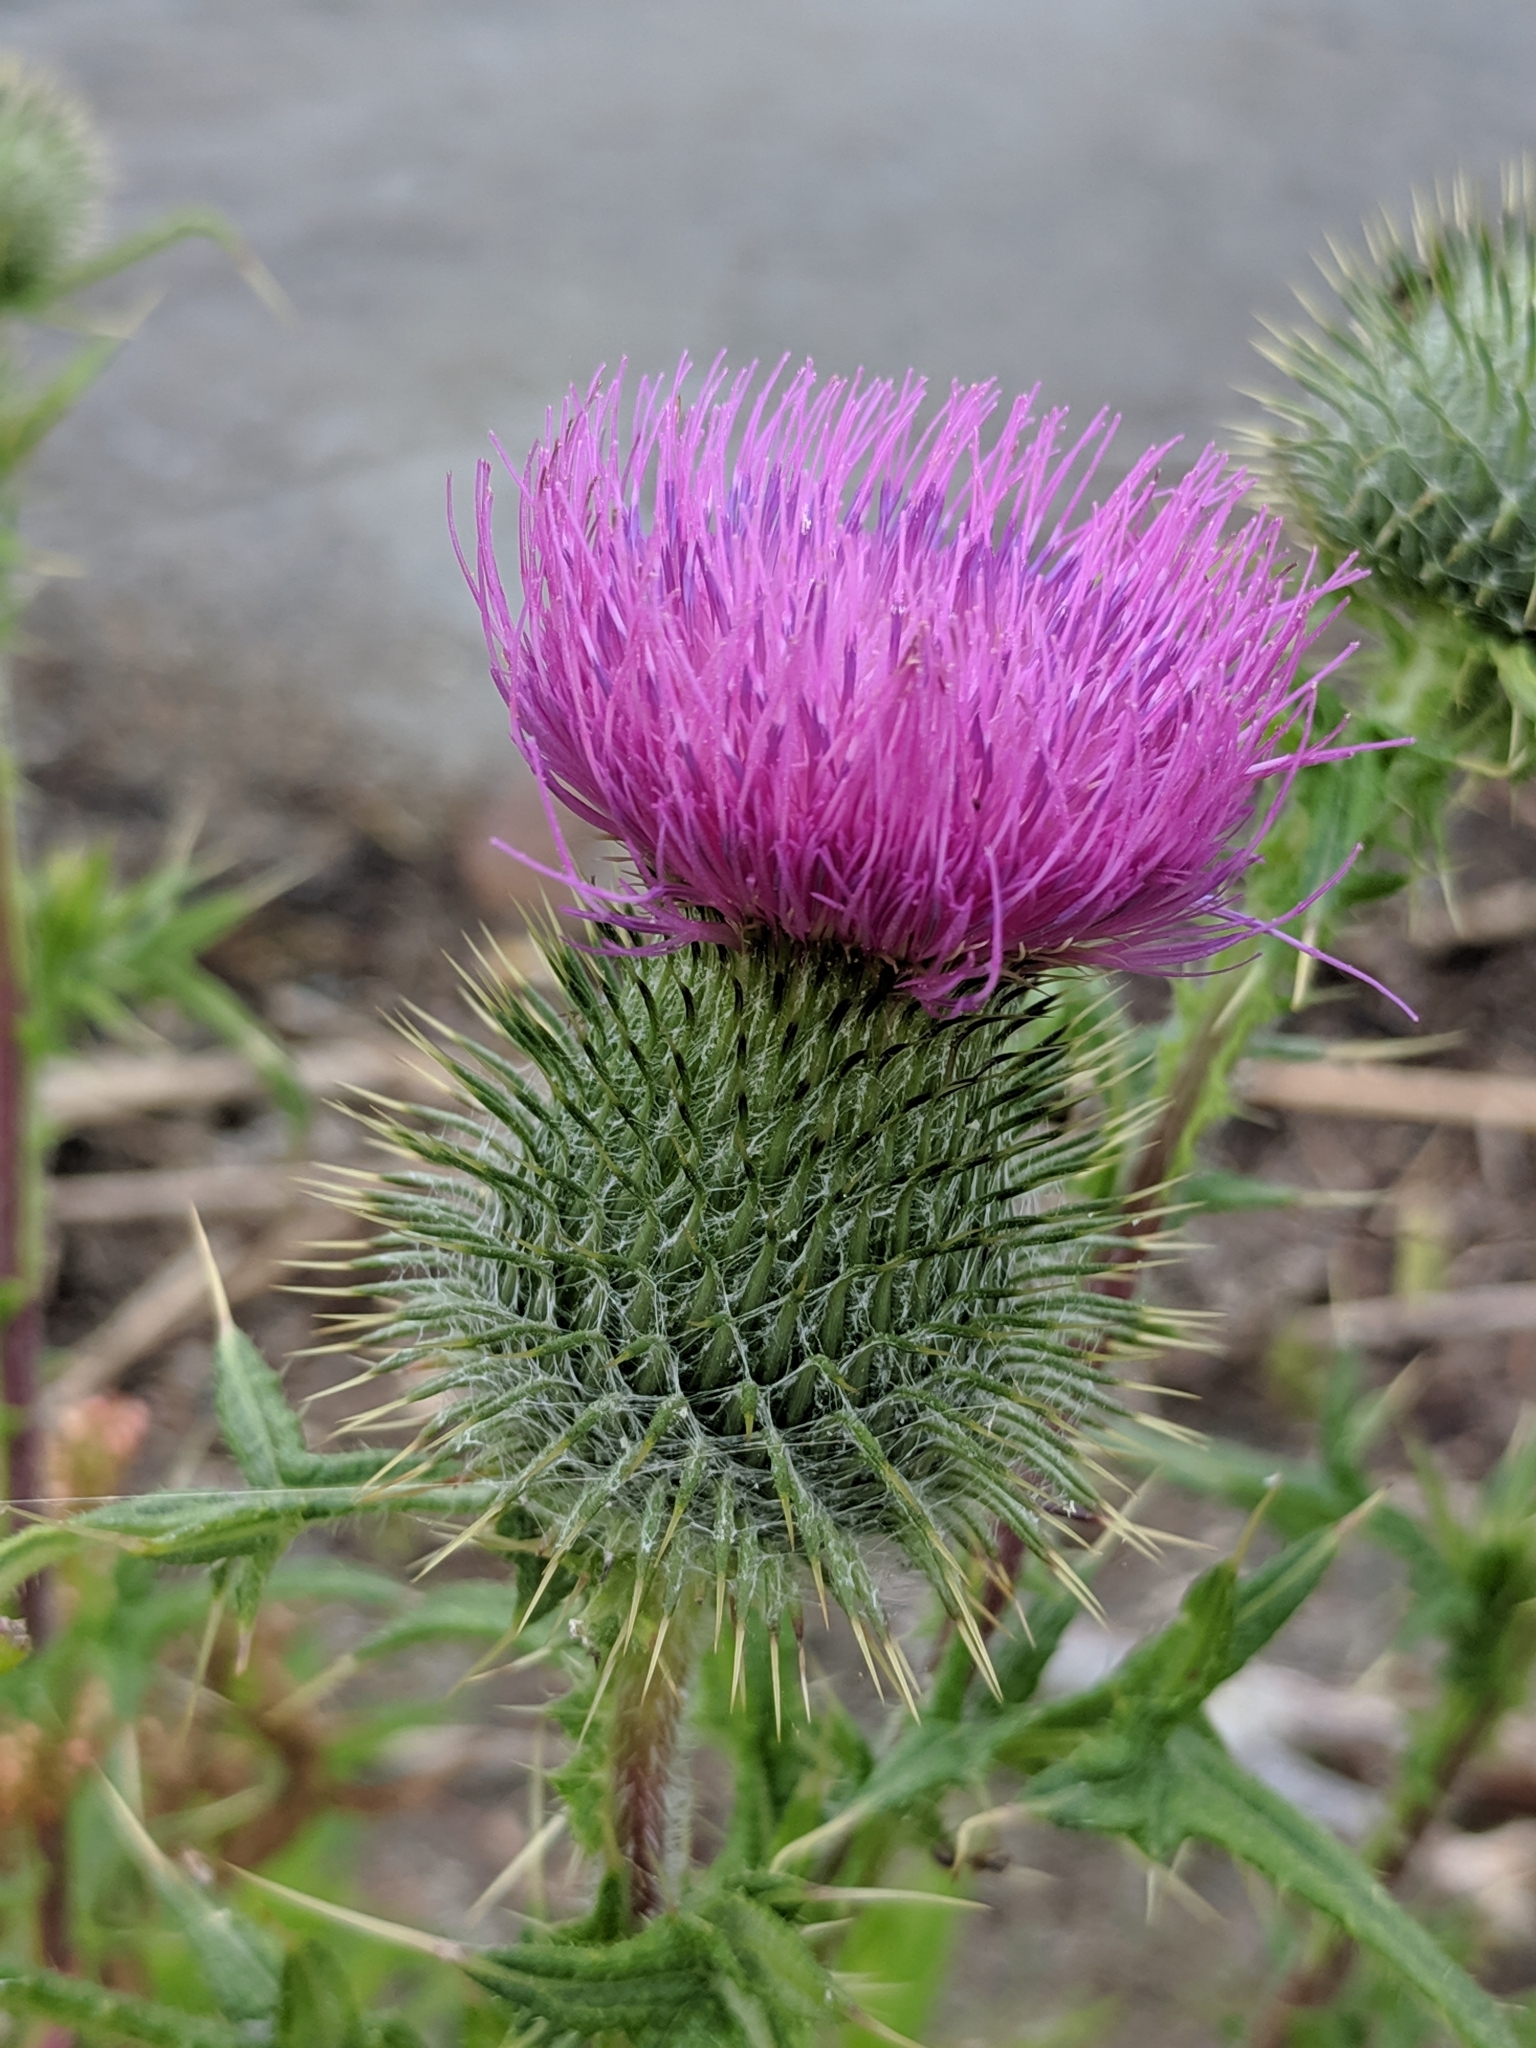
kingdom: Plantae
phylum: Tracheophyta
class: Magnoliopsida
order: Asterales
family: Asteraceae
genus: Cirsium
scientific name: Cirsium vulgare
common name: Bull thistle
